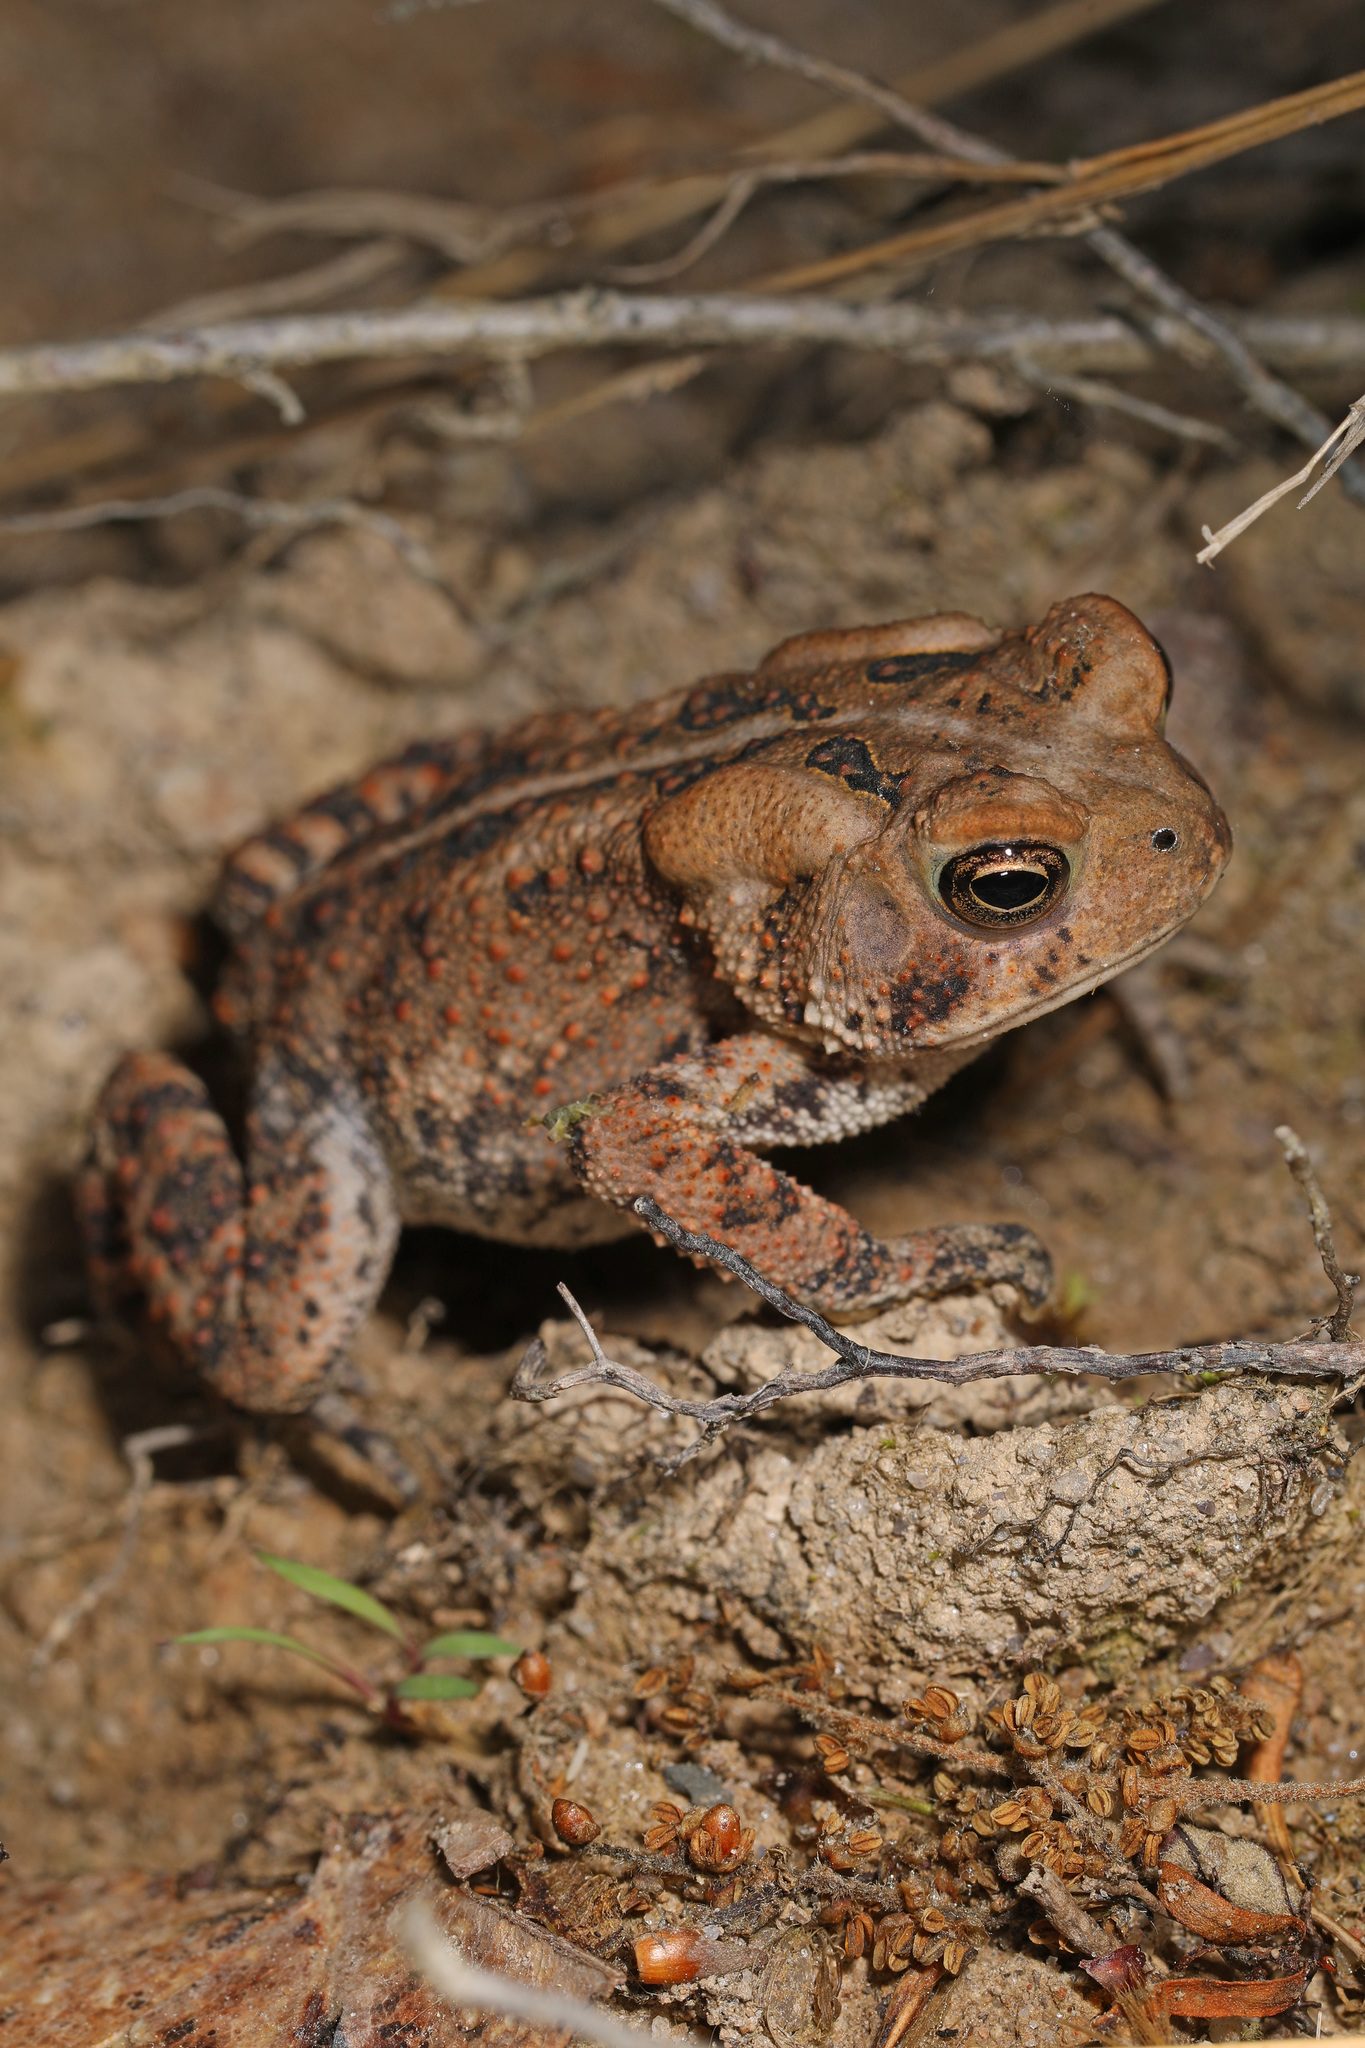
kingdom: Animalia
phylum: Chordata
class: Amphibia
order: Anura
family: Bufonidae
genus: Anaxyrus
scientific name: Anaxyrus americanus
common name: American toad
